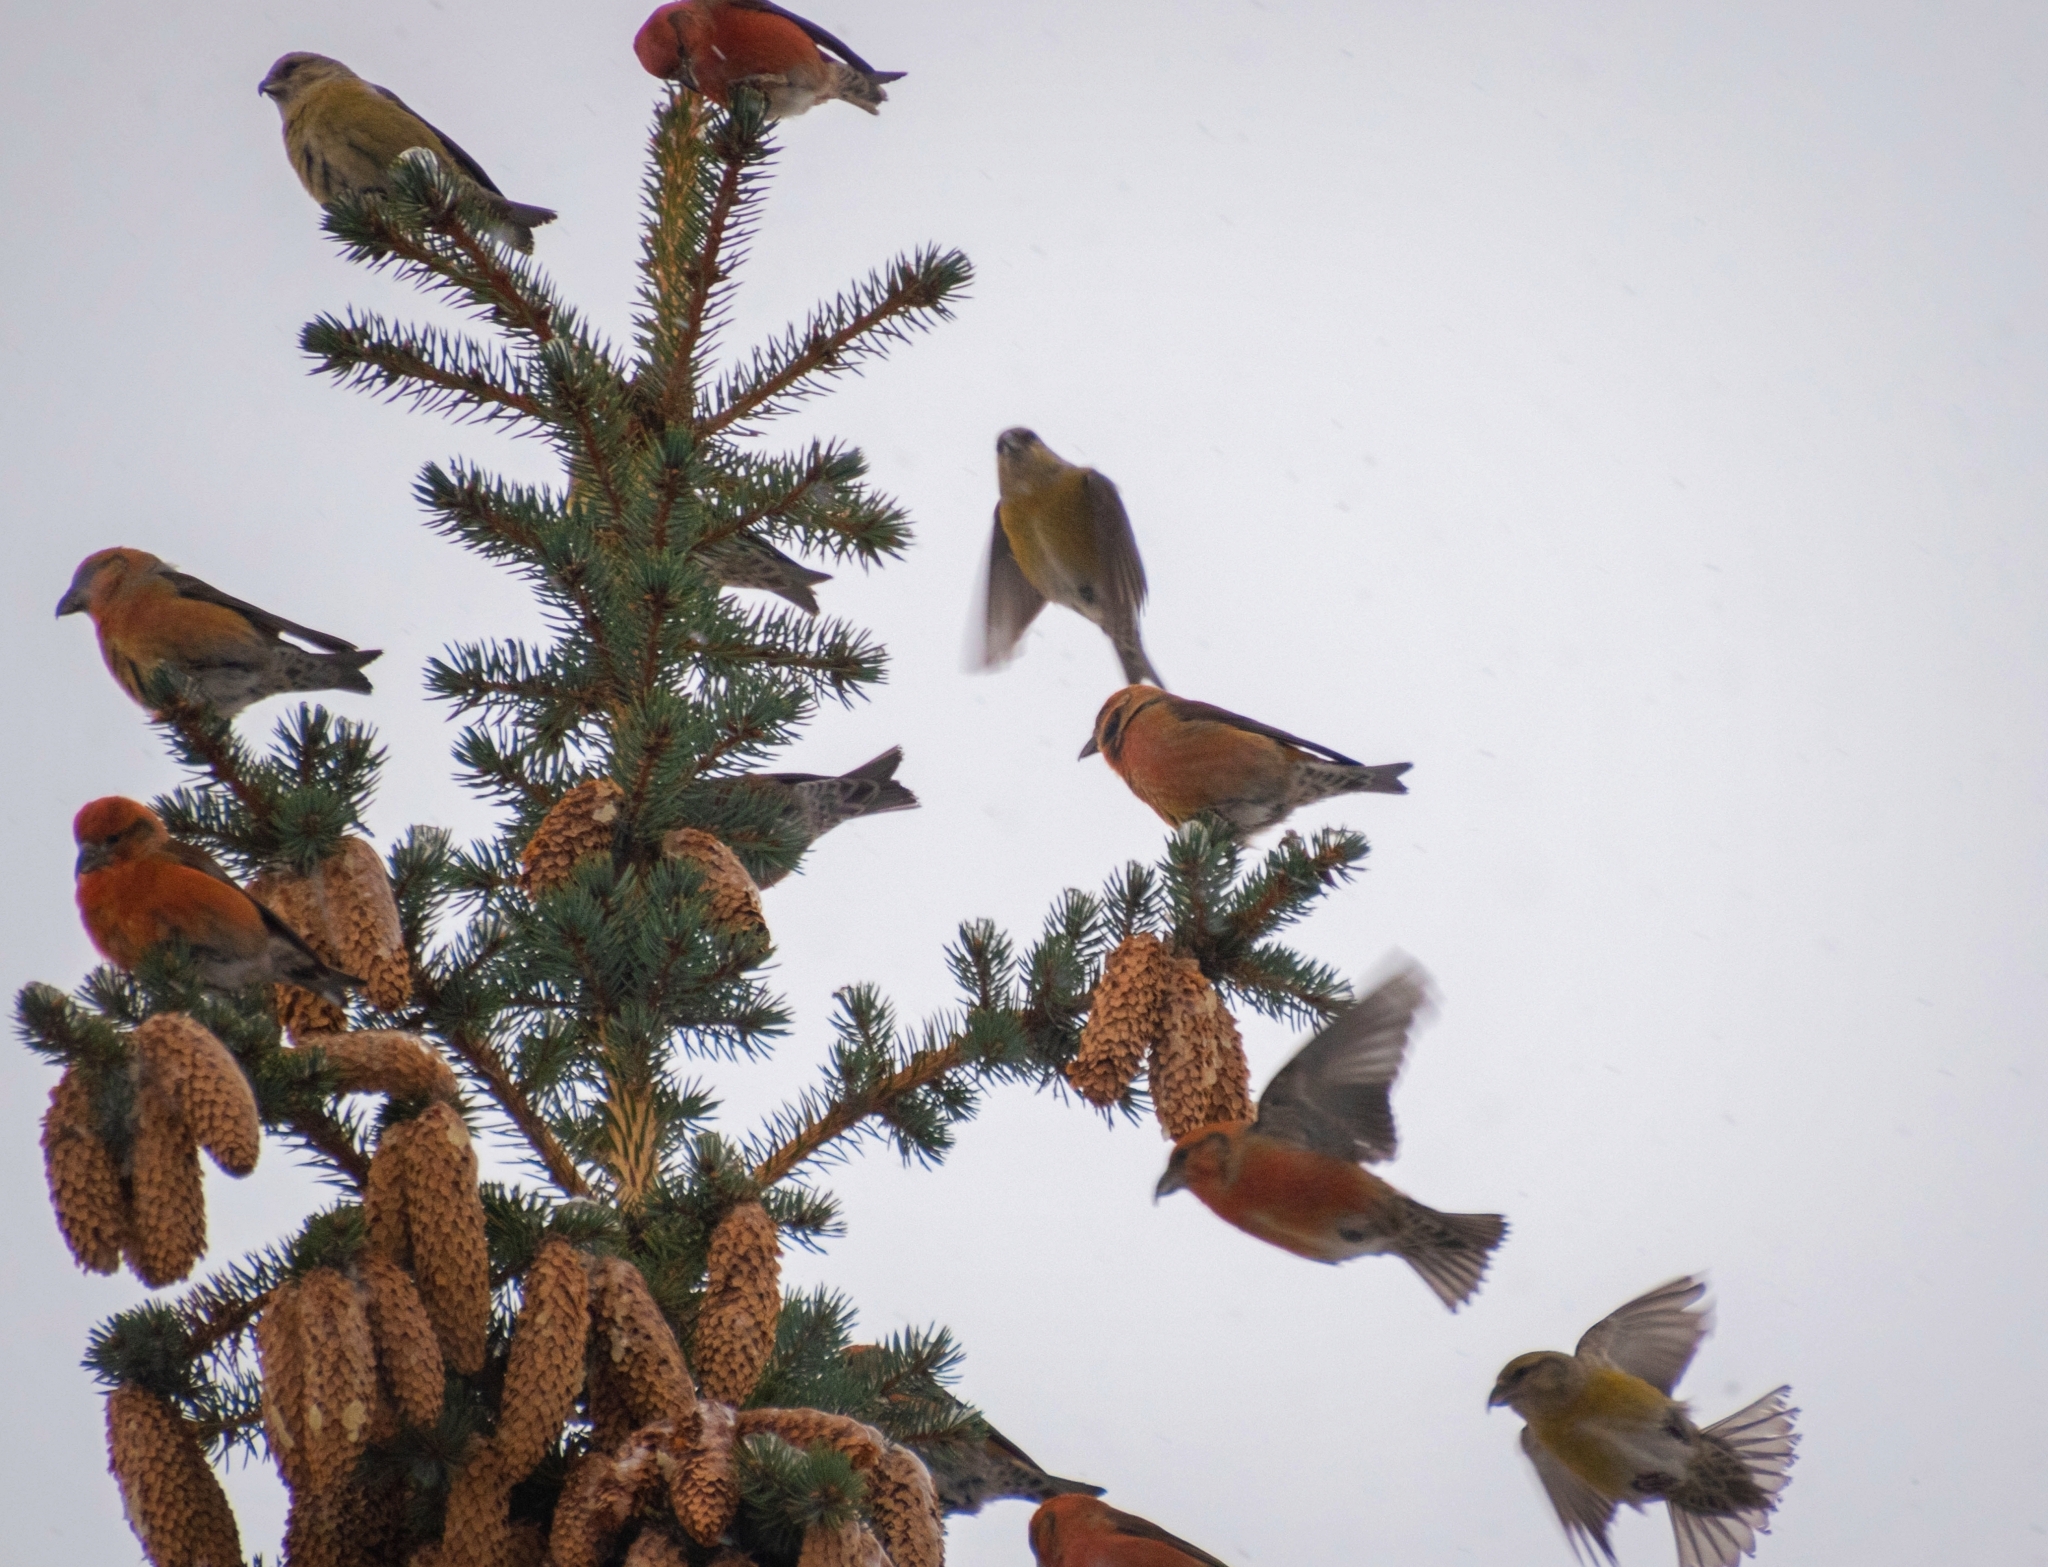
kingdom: Animalia
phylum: Chordata
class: Aves
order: Passeriformes
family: Fringillidae
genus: Loxia
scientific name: Loxia curvirostra
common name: Red crossbill
